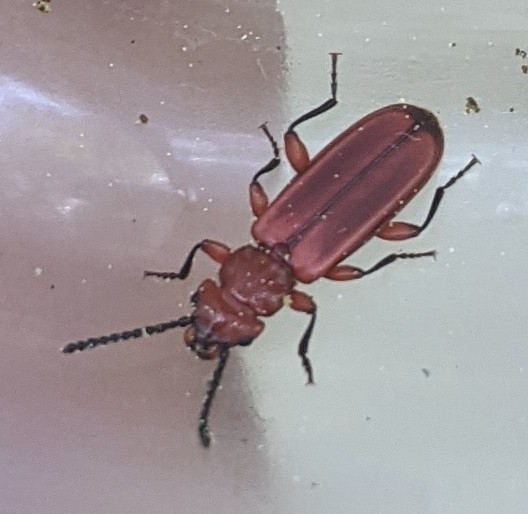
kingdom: Animalia
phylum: Arthropoda
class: Insecta
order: Coleoptera
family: Cucujidae
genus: Cucujus
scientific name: Cucujus clavipes
